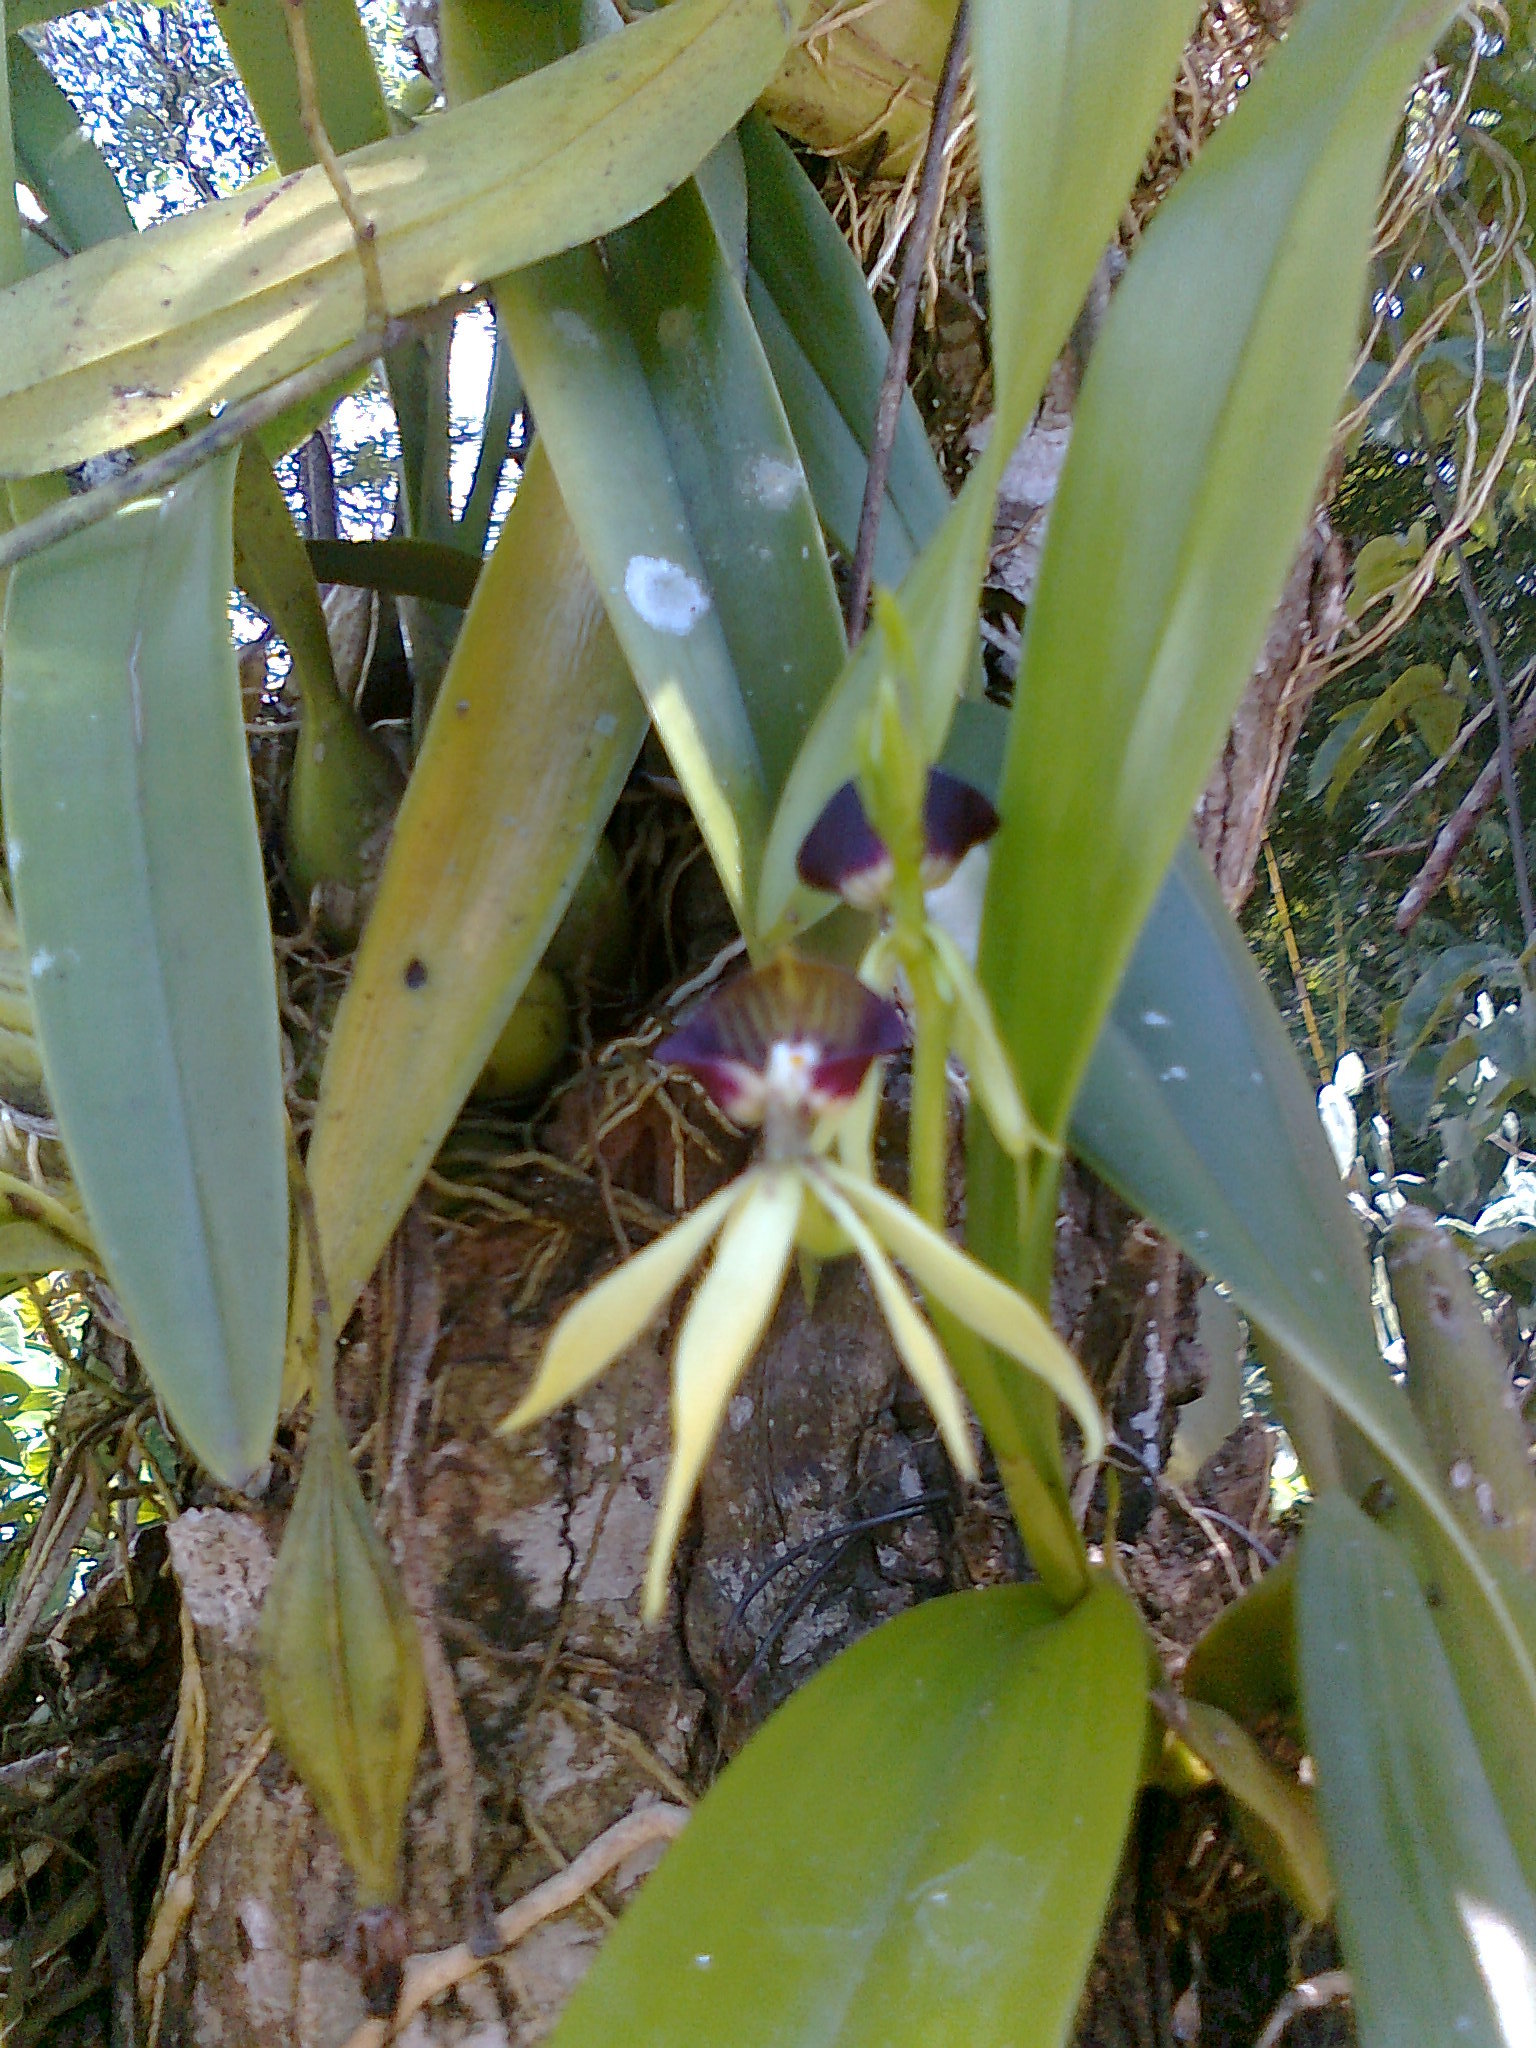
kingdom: Plantae
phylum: Tracheophyta
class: Liliopsida
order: Asparagales
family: Orchidaceae
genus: Prosthechea
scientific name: Prosthechea cochleata
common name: Clamshell orchid
